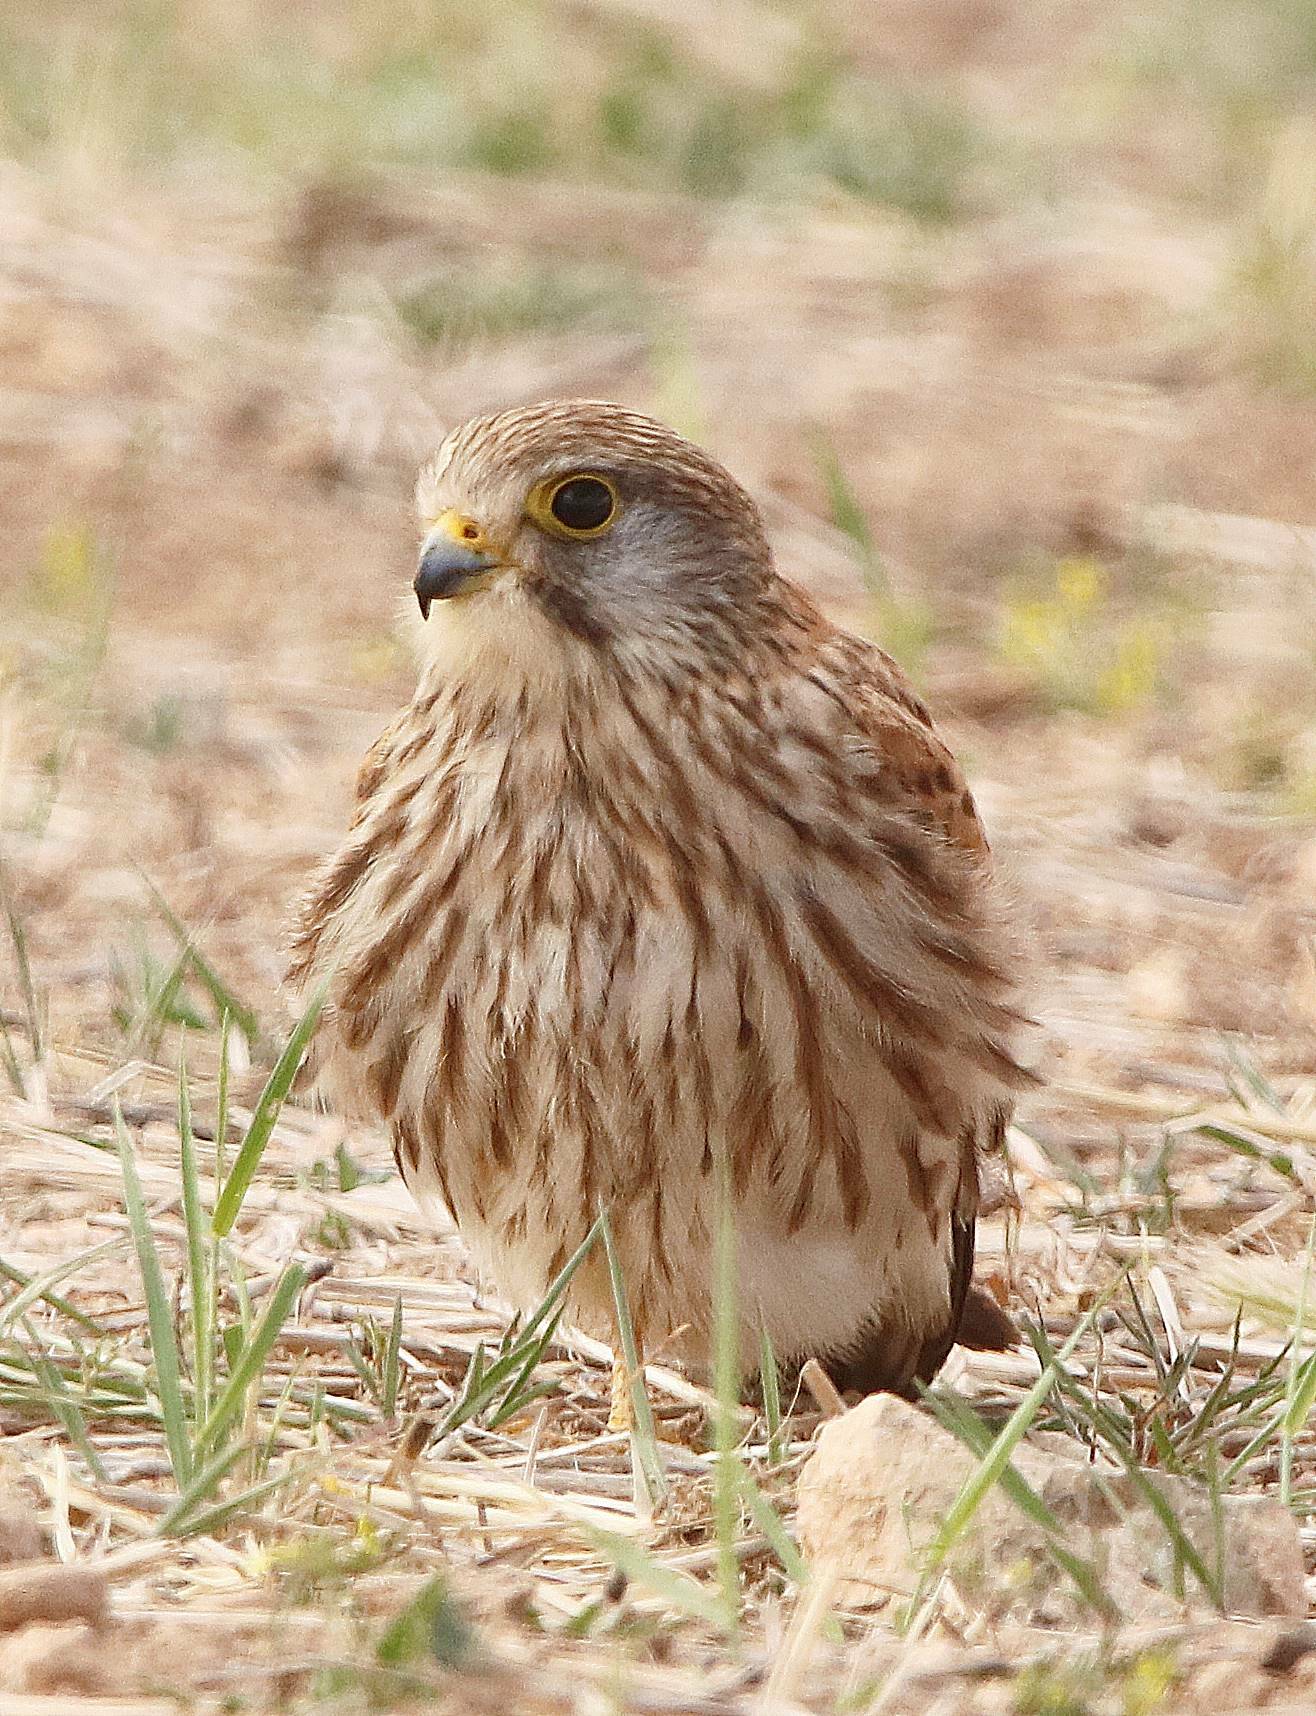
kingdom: Animalia
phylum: Chordata
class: Aves
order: Falconiformes
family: Falconidae
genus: Falco
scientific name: Falco tinnunculus
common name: Common kestrel
